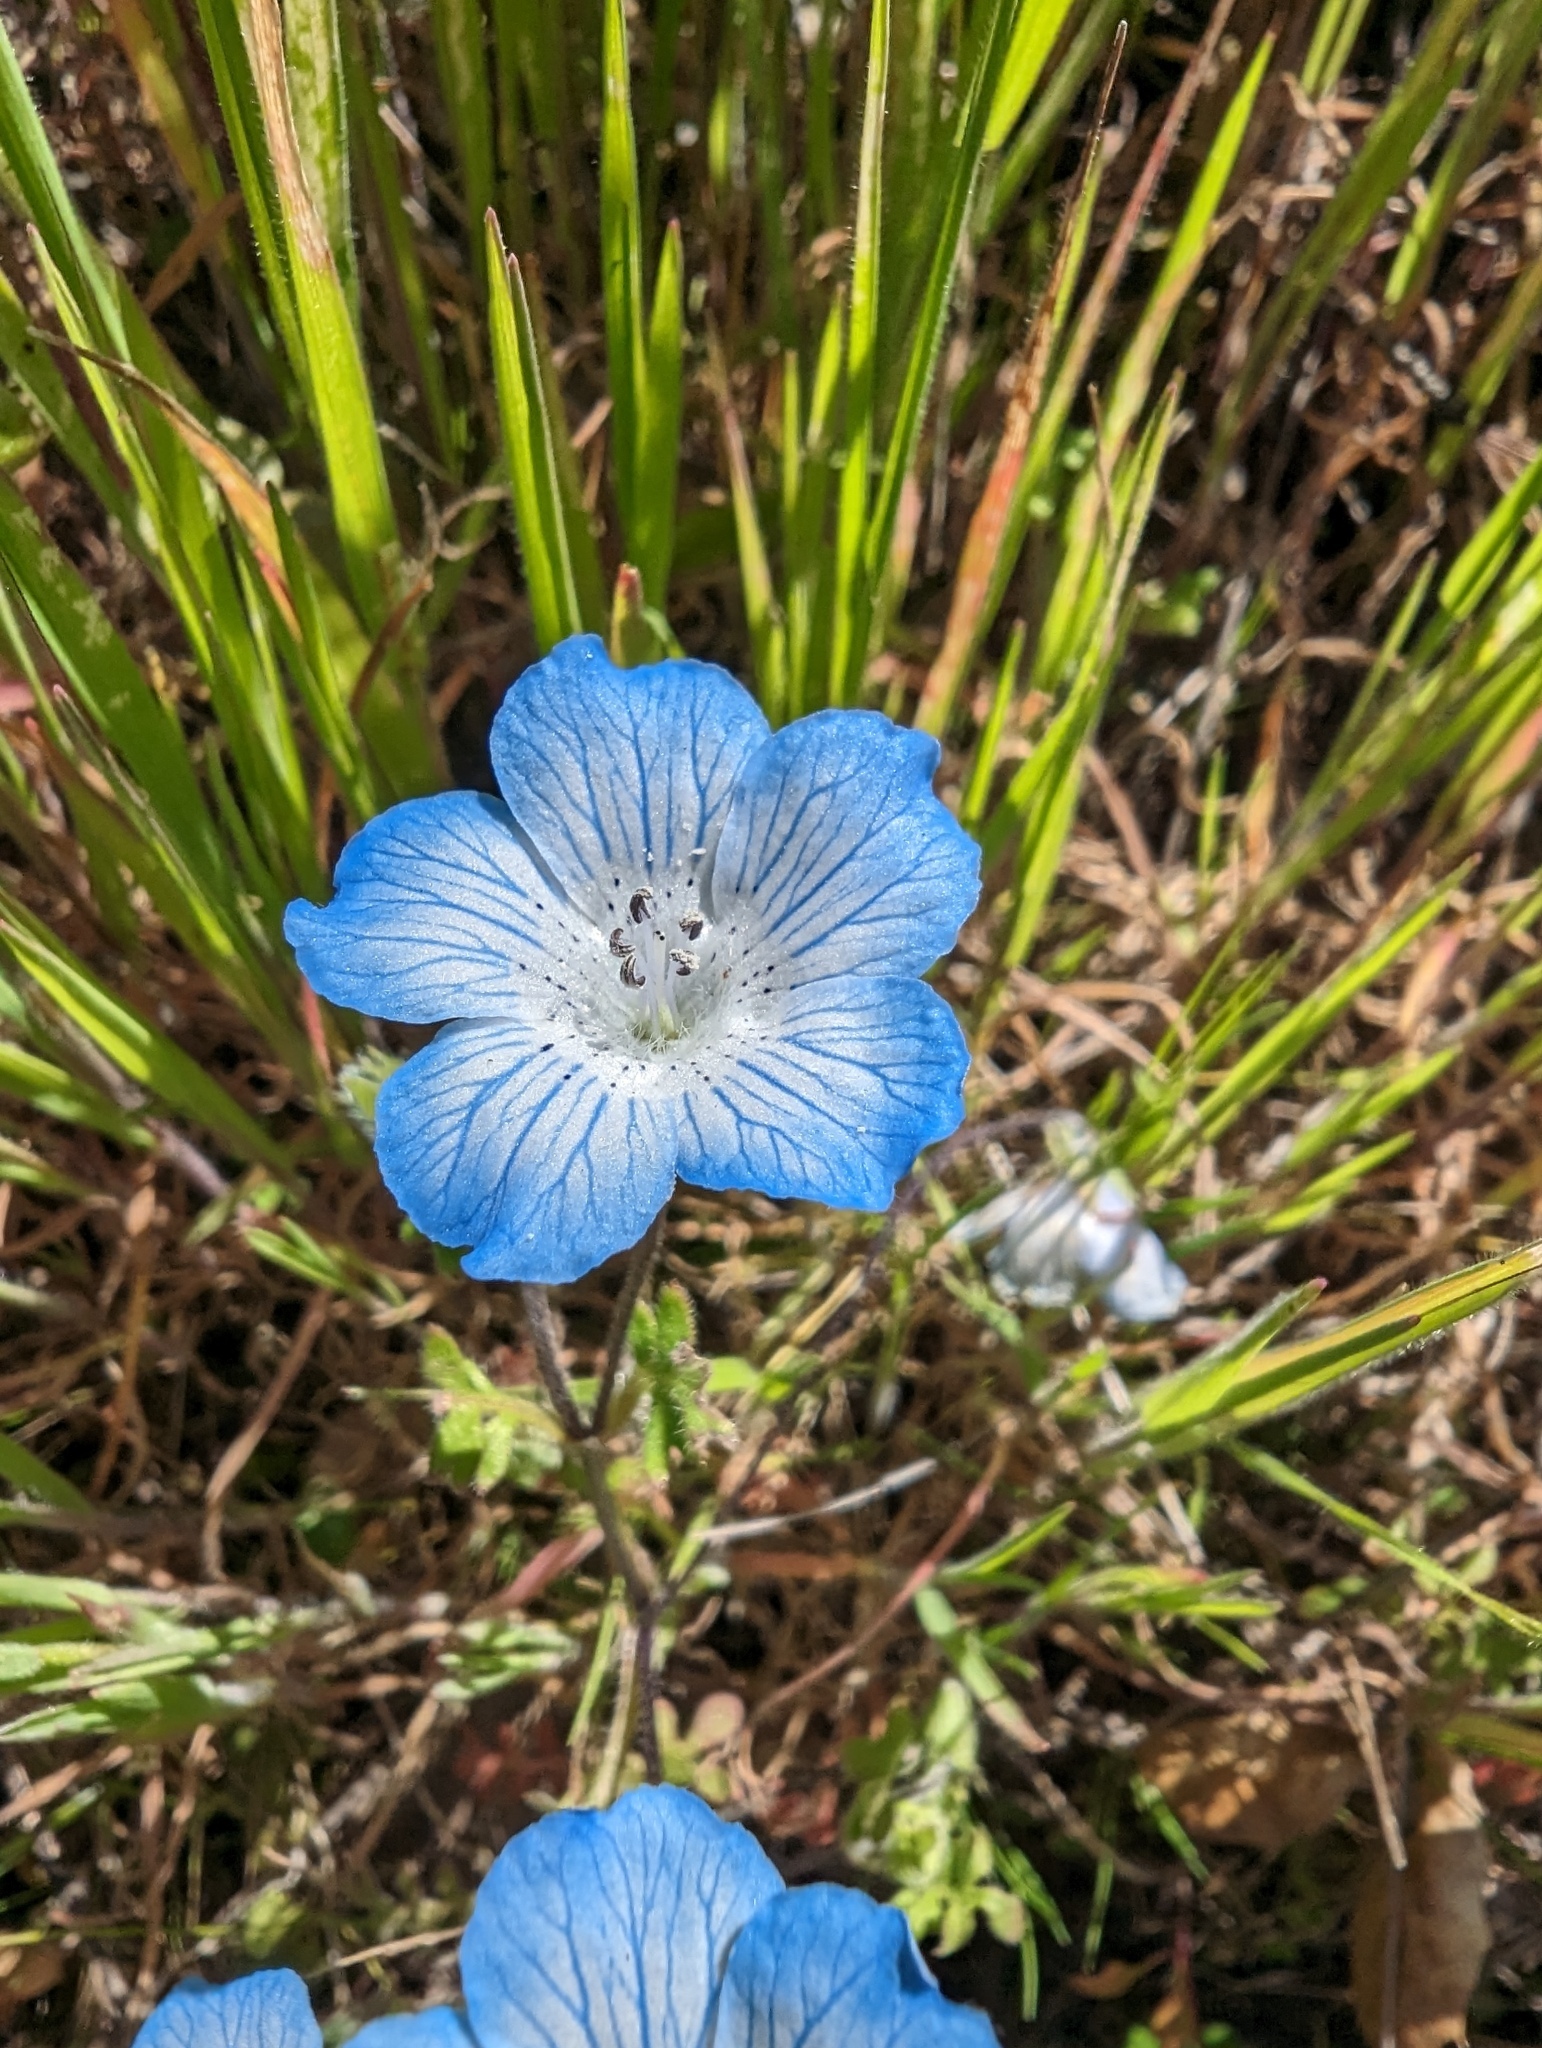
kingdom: Plantae
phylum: Tracheophyta
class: Magnoliopsida
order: Boraginales
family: Hydrophyllaceae
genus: Nemophila
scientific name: Nemophila menziesii
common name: Baby's-blue-eyes
